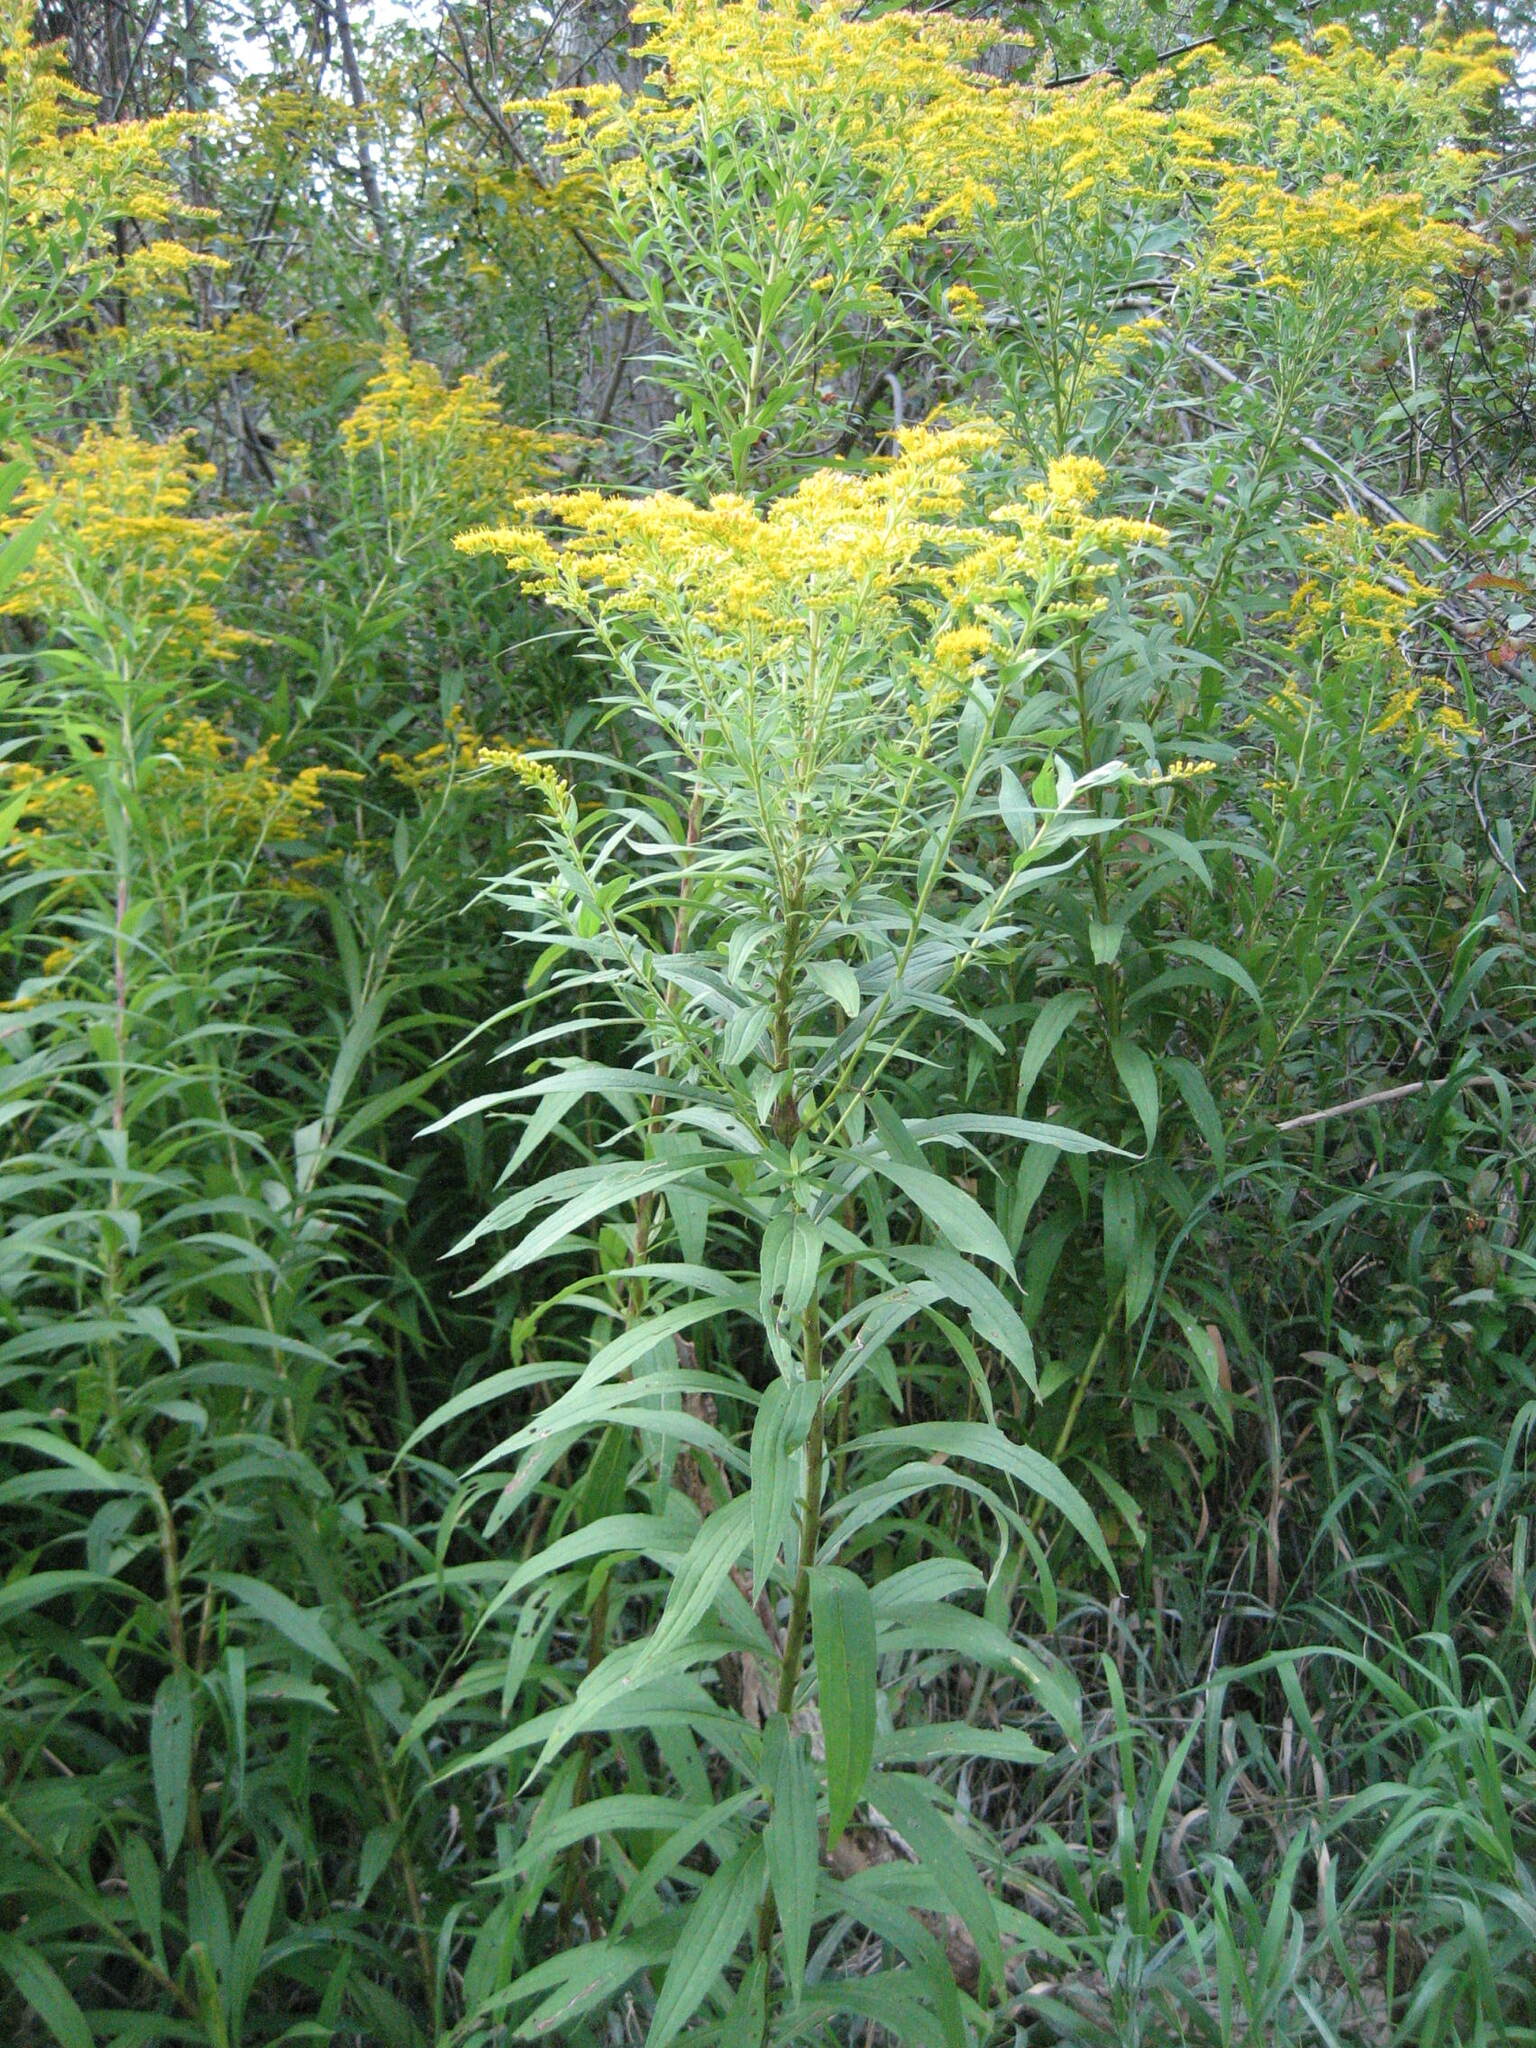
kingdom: Plantae
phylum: Tracheophyta
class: Magnoliopsida
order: Asterales
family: Asteraceae
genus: Solidago
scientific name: Solidago altissima
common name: Late goldenrod
